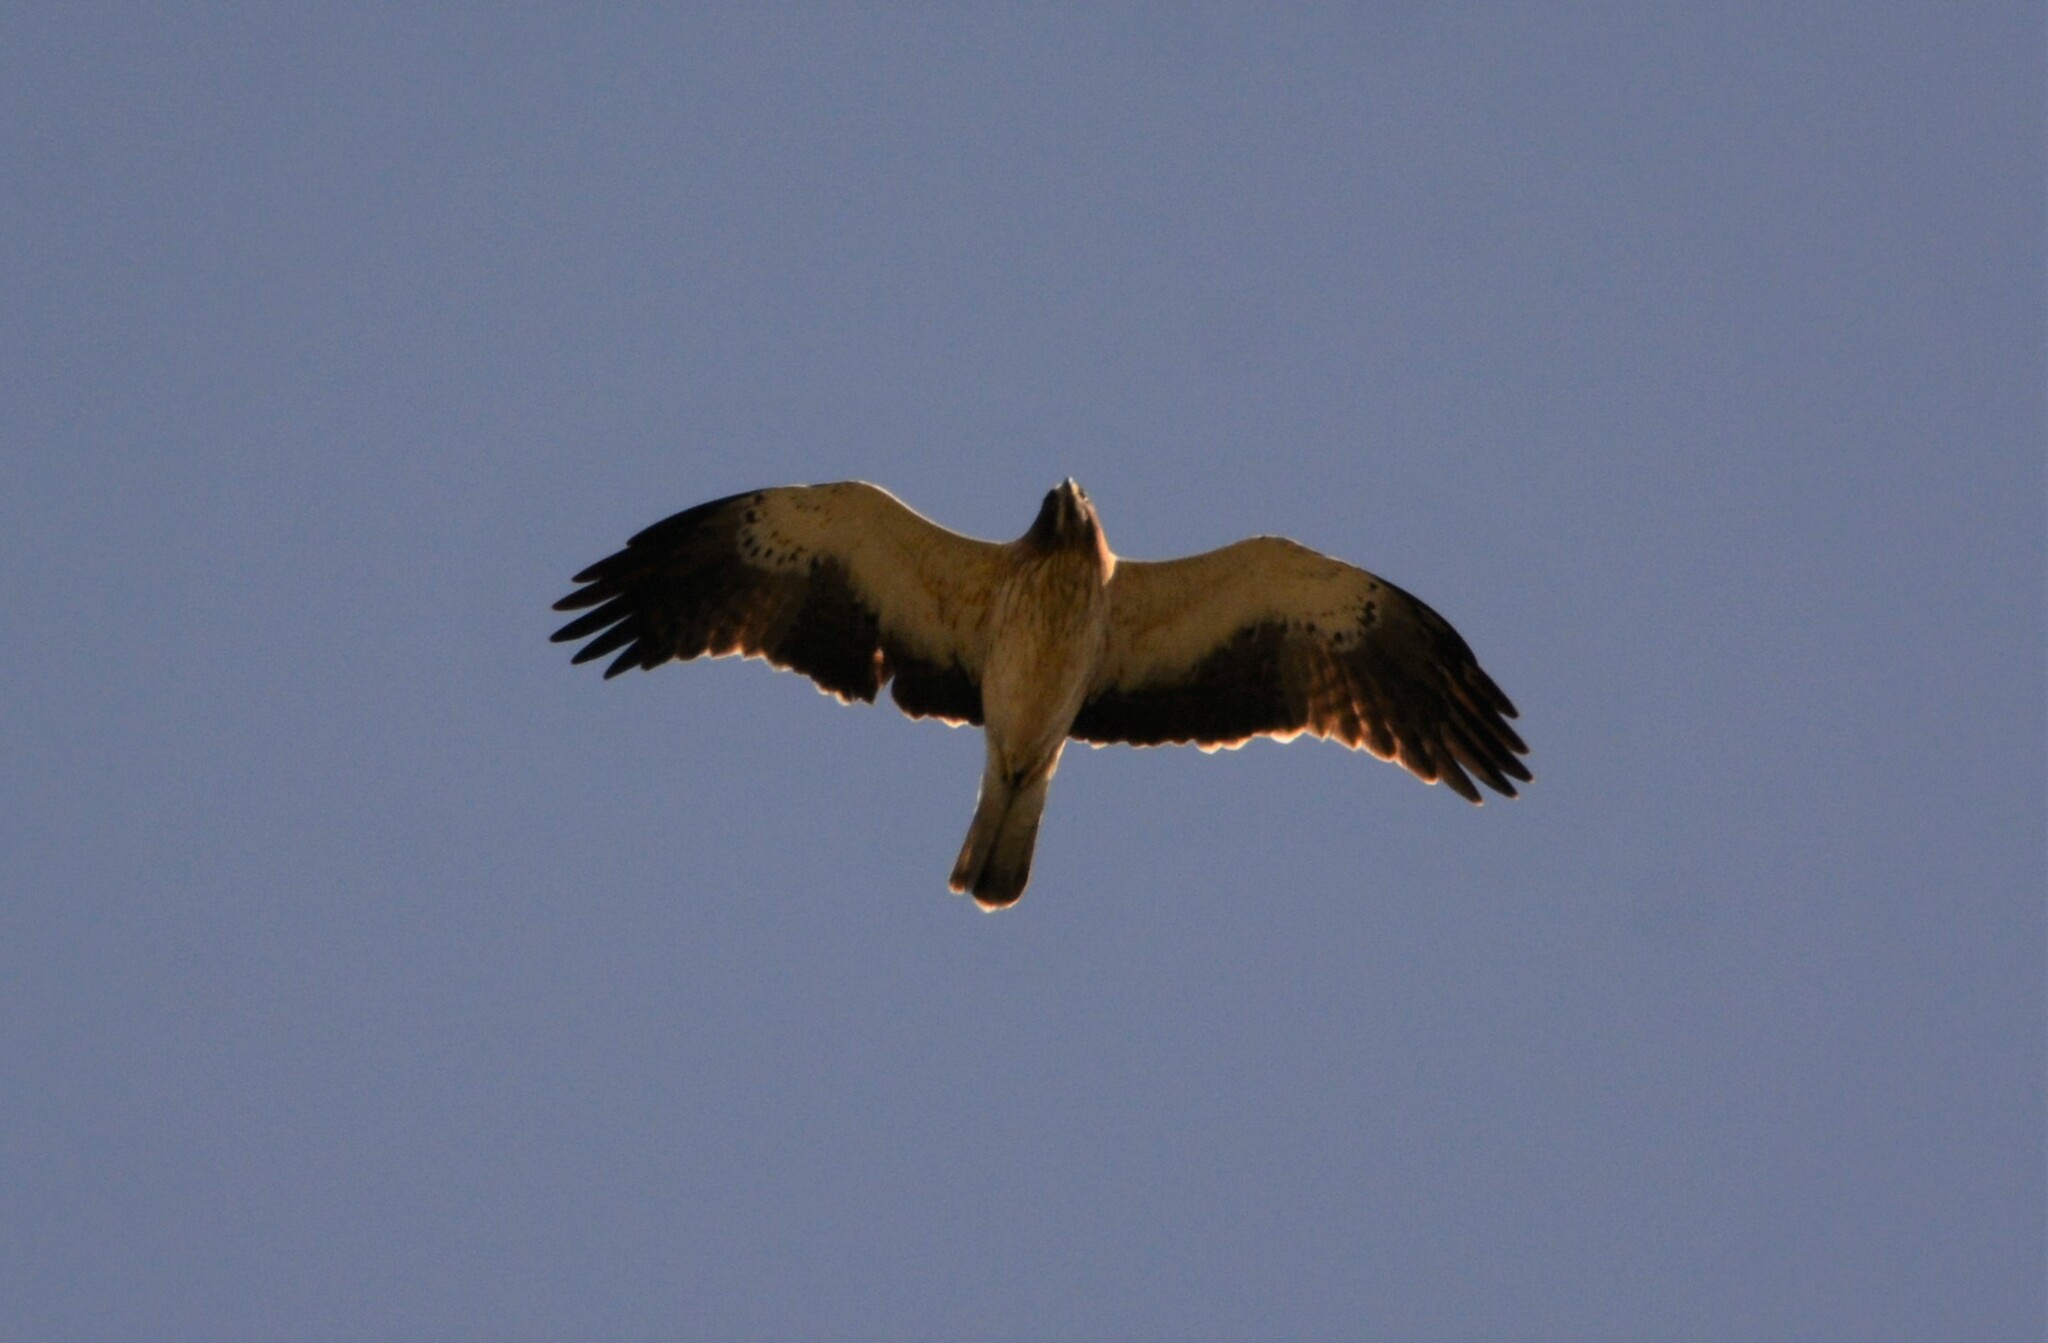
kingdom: Animalia
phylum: Chordata
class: Aves
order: Accipitriformes
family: Accipitridae
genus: Hieraaetus
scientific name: Hieraaetus pennatus
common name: Booted eagle
